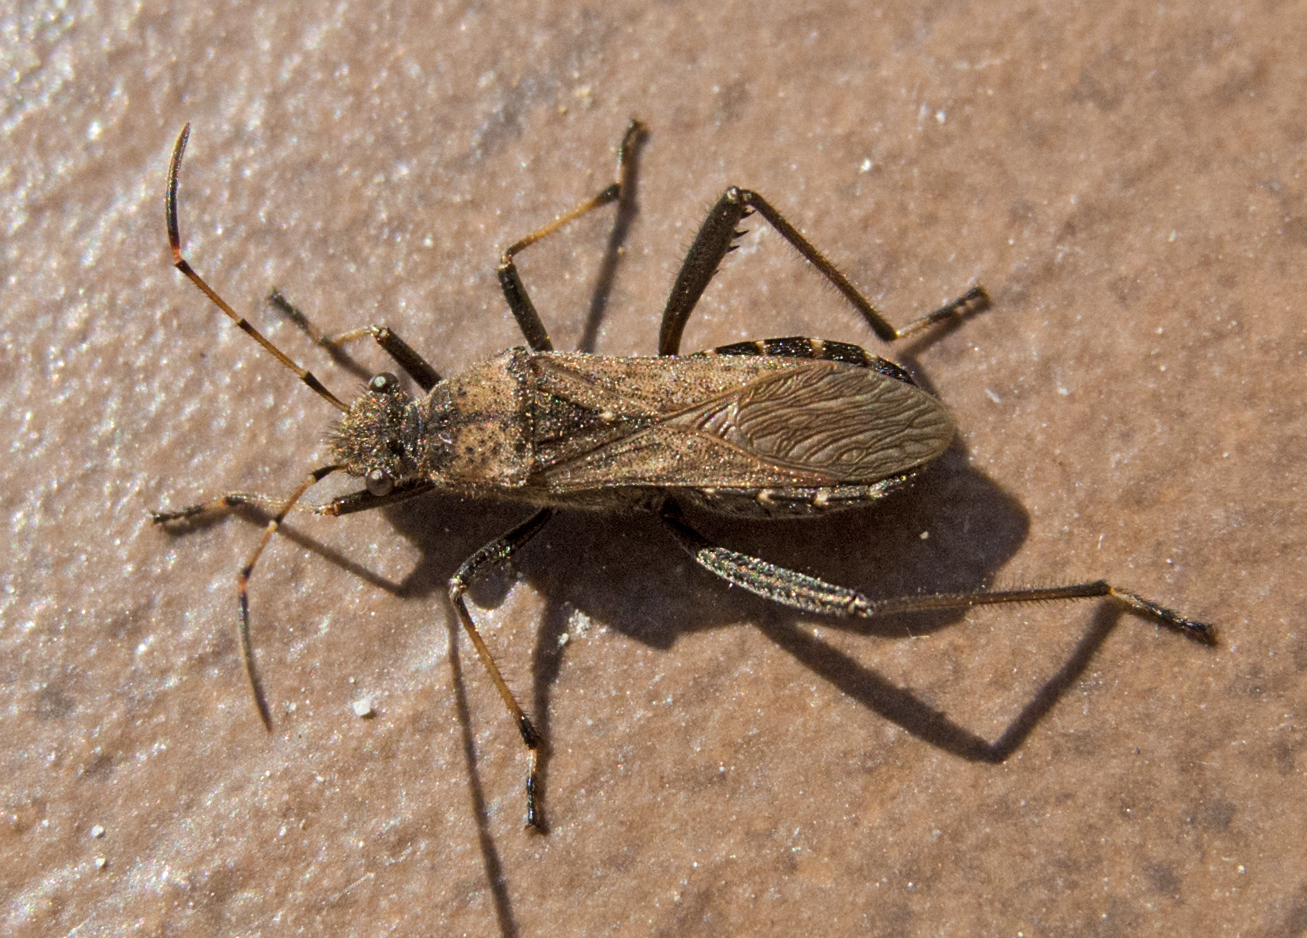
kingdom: Animalia
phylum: Arthropoda
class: Insecta
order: Hemiptera
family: Alydidae
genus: Alydus
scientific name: Alydus calcaratus
